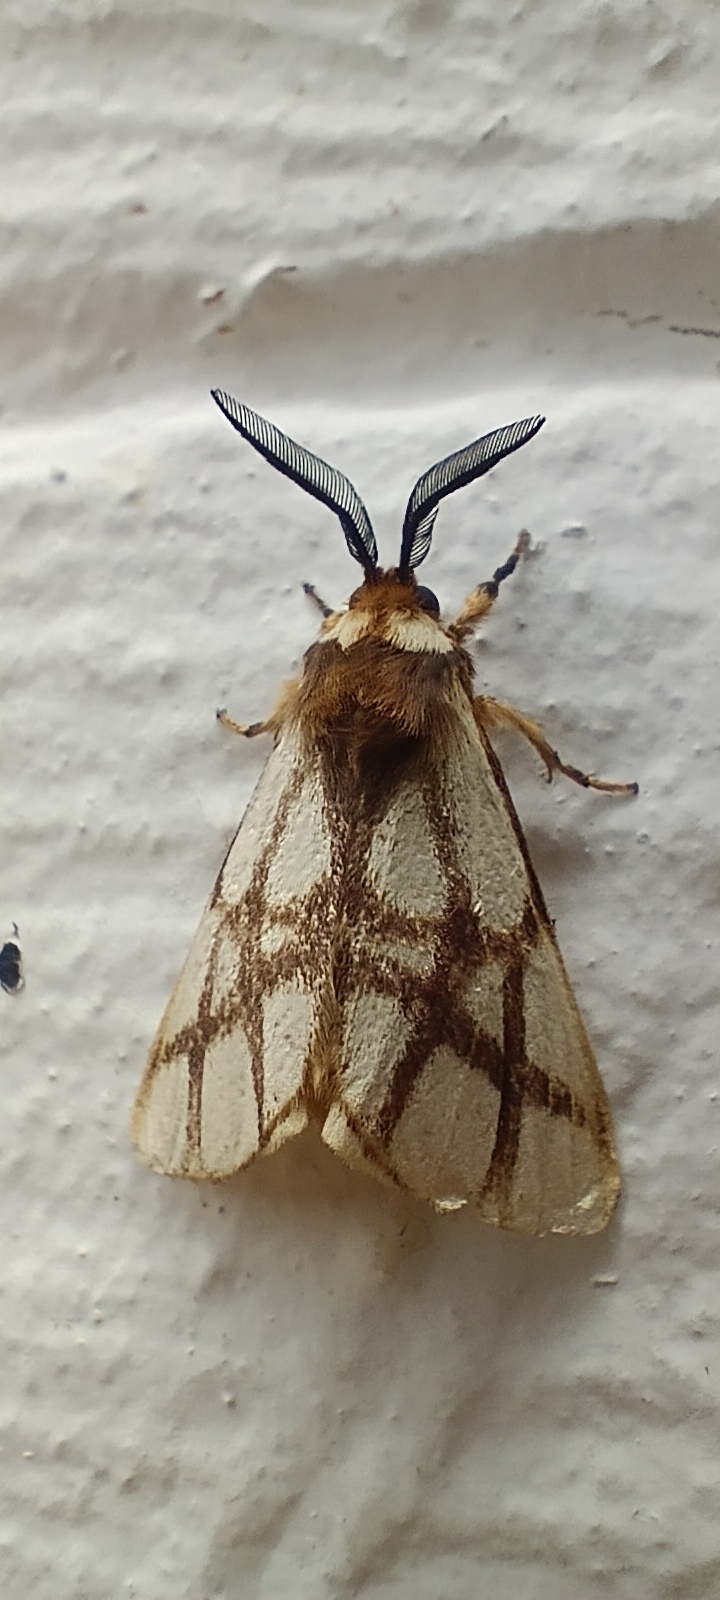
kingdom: Animalia
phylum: Arthropoda
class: Insecta
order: Lepidoptera
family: Notodontidae
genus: Anaphe
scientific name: Anaphe reticulata
